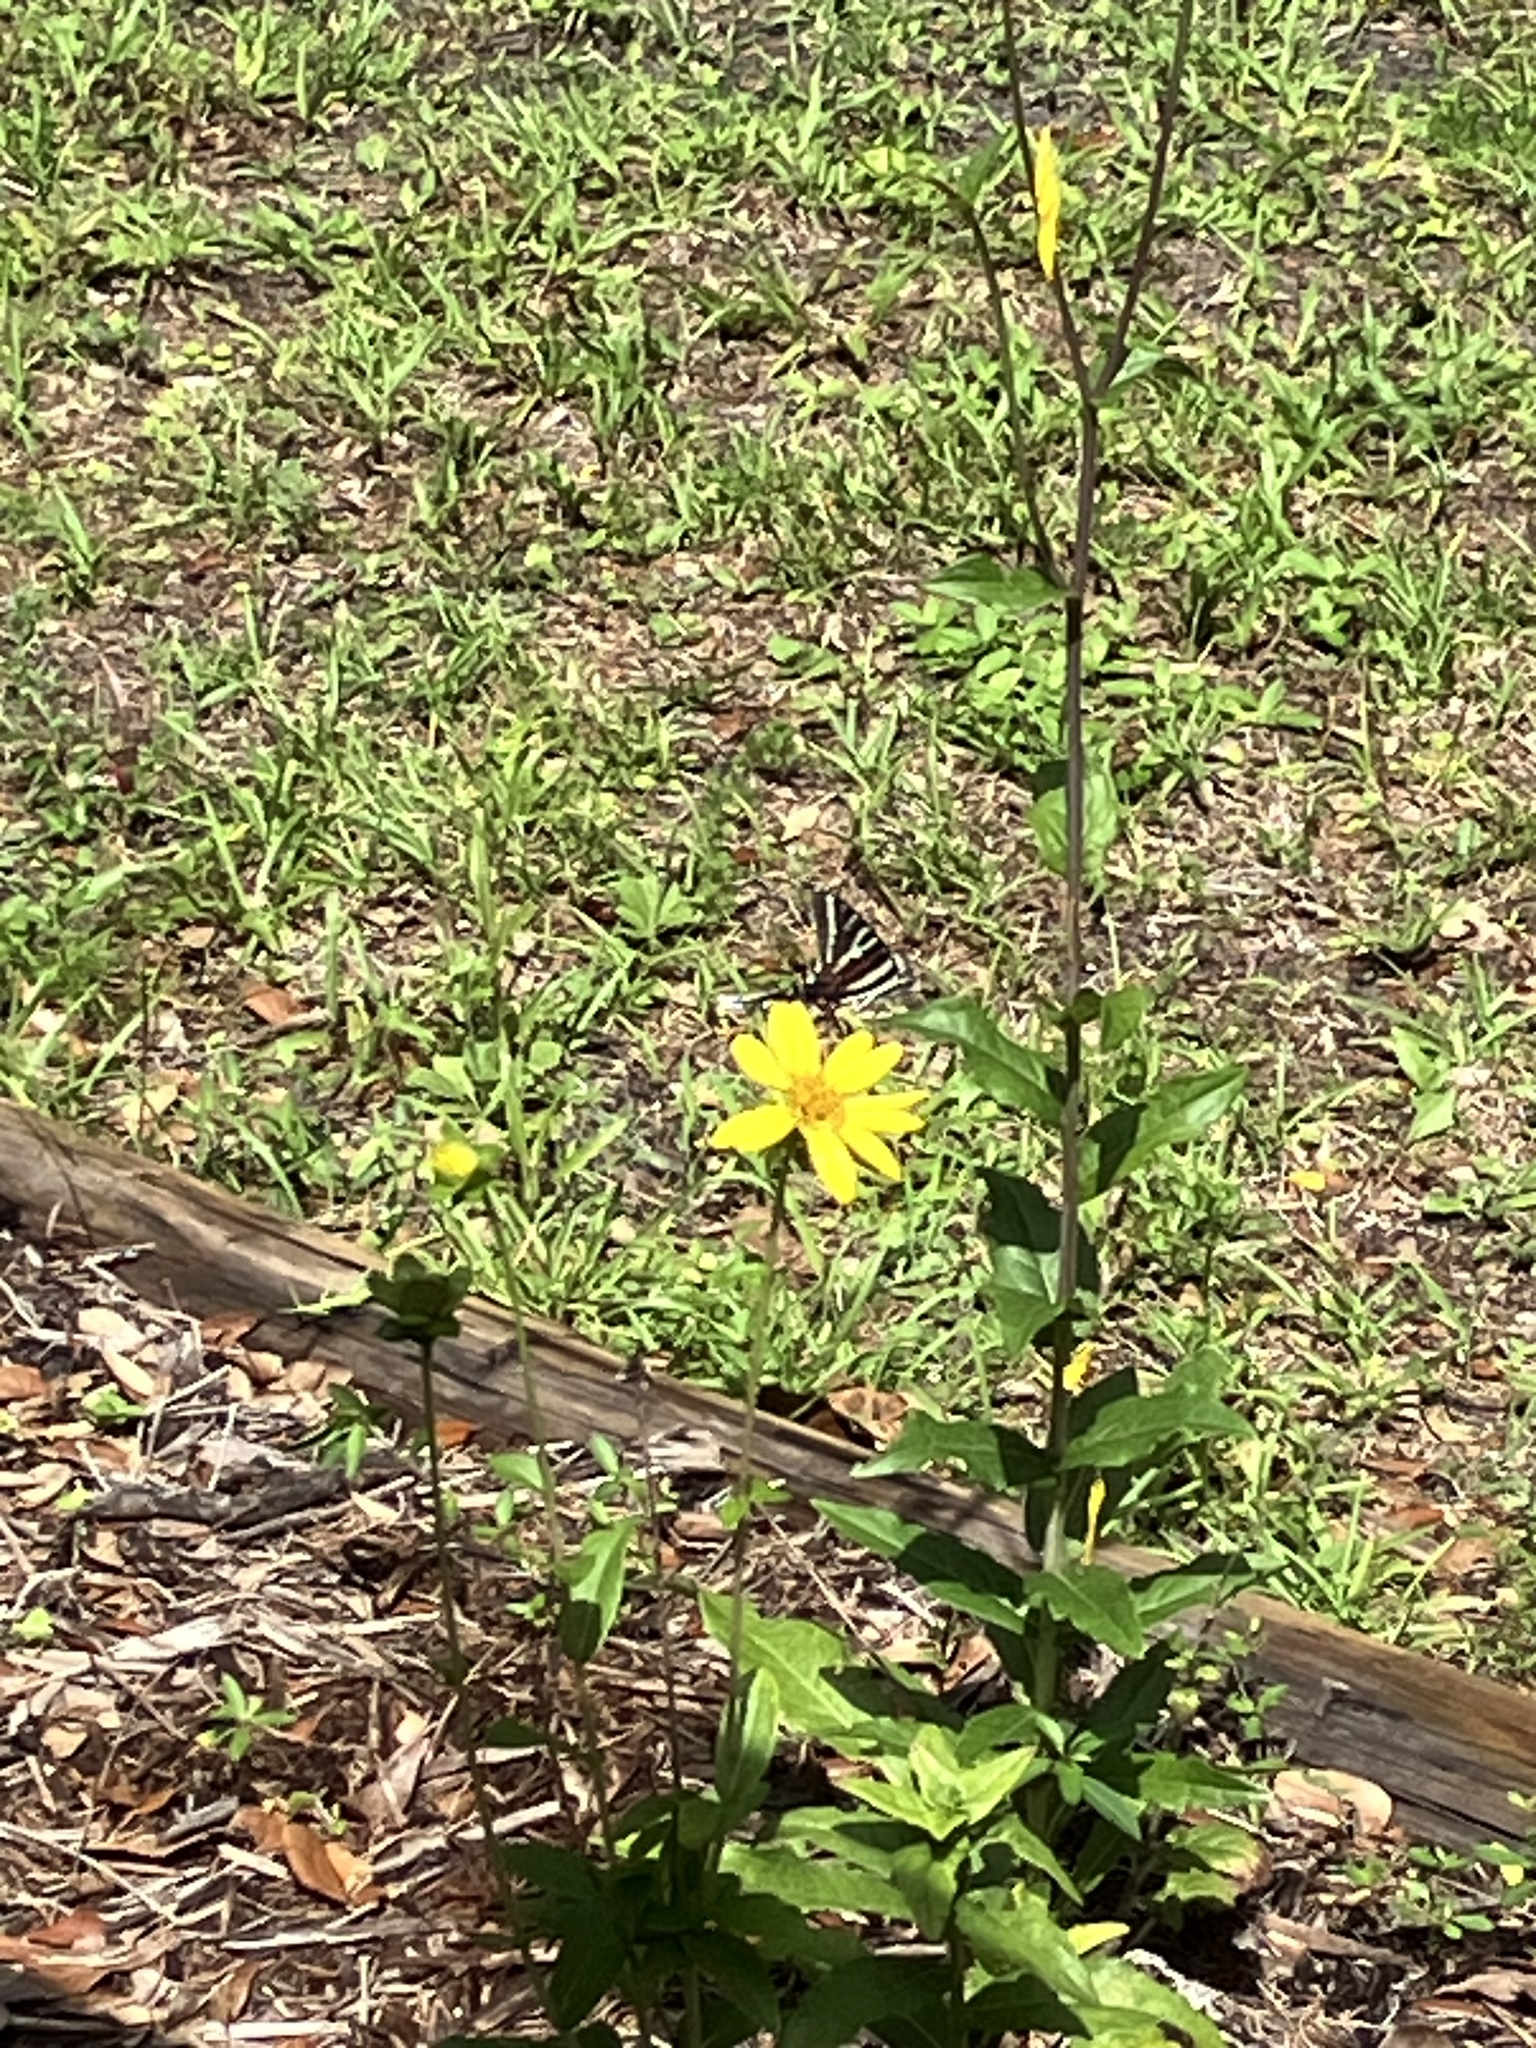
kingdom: Animalia
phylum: Arthropoda
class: Insecta
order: Lepidoptera
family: Papilionidae
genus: Protographium
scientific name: Protographium marcellus
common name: Zebra swallowtail
